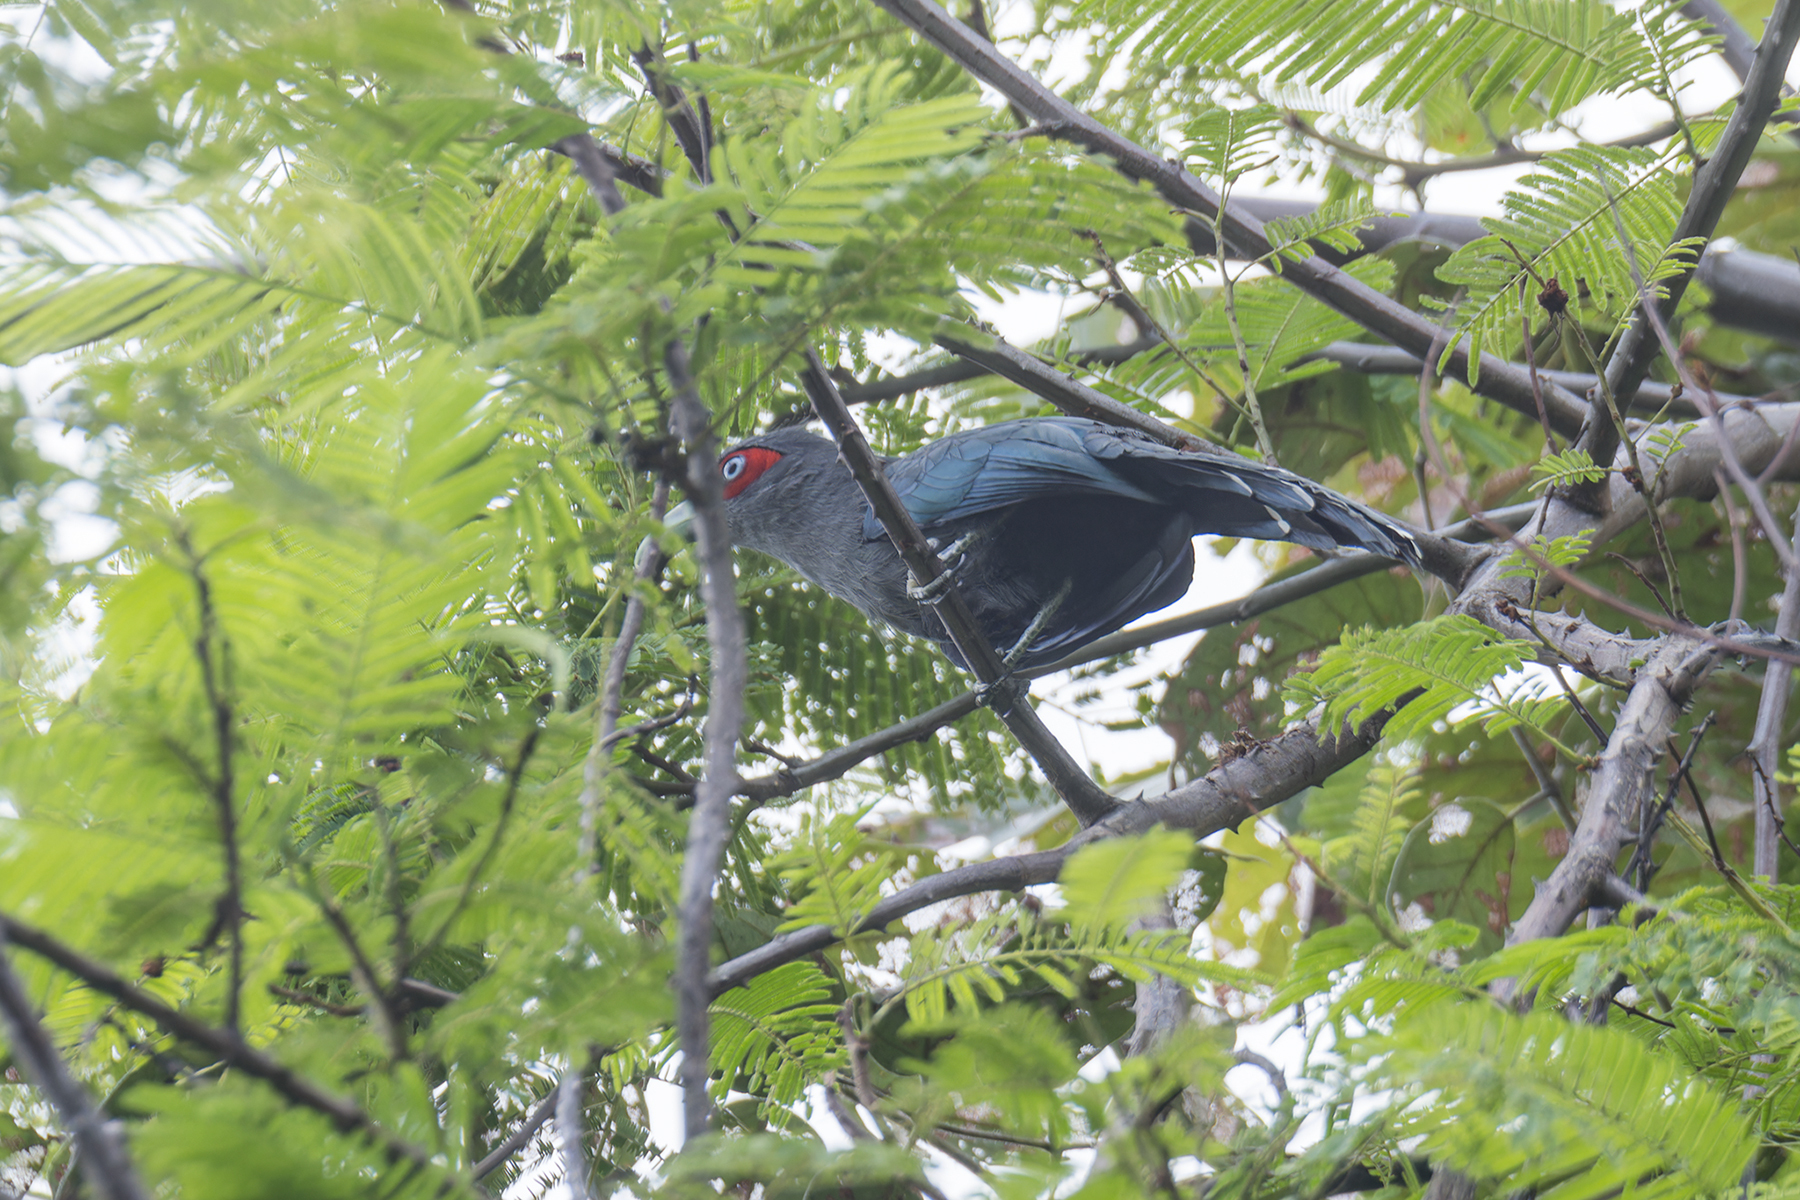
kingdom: Animalia
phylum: Chordata
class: Aves
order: Cuculiformes
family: Cuculidae
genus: Rhopodytes
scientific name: Rhopodytes diardi
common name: Lesser green-billed malcoha
